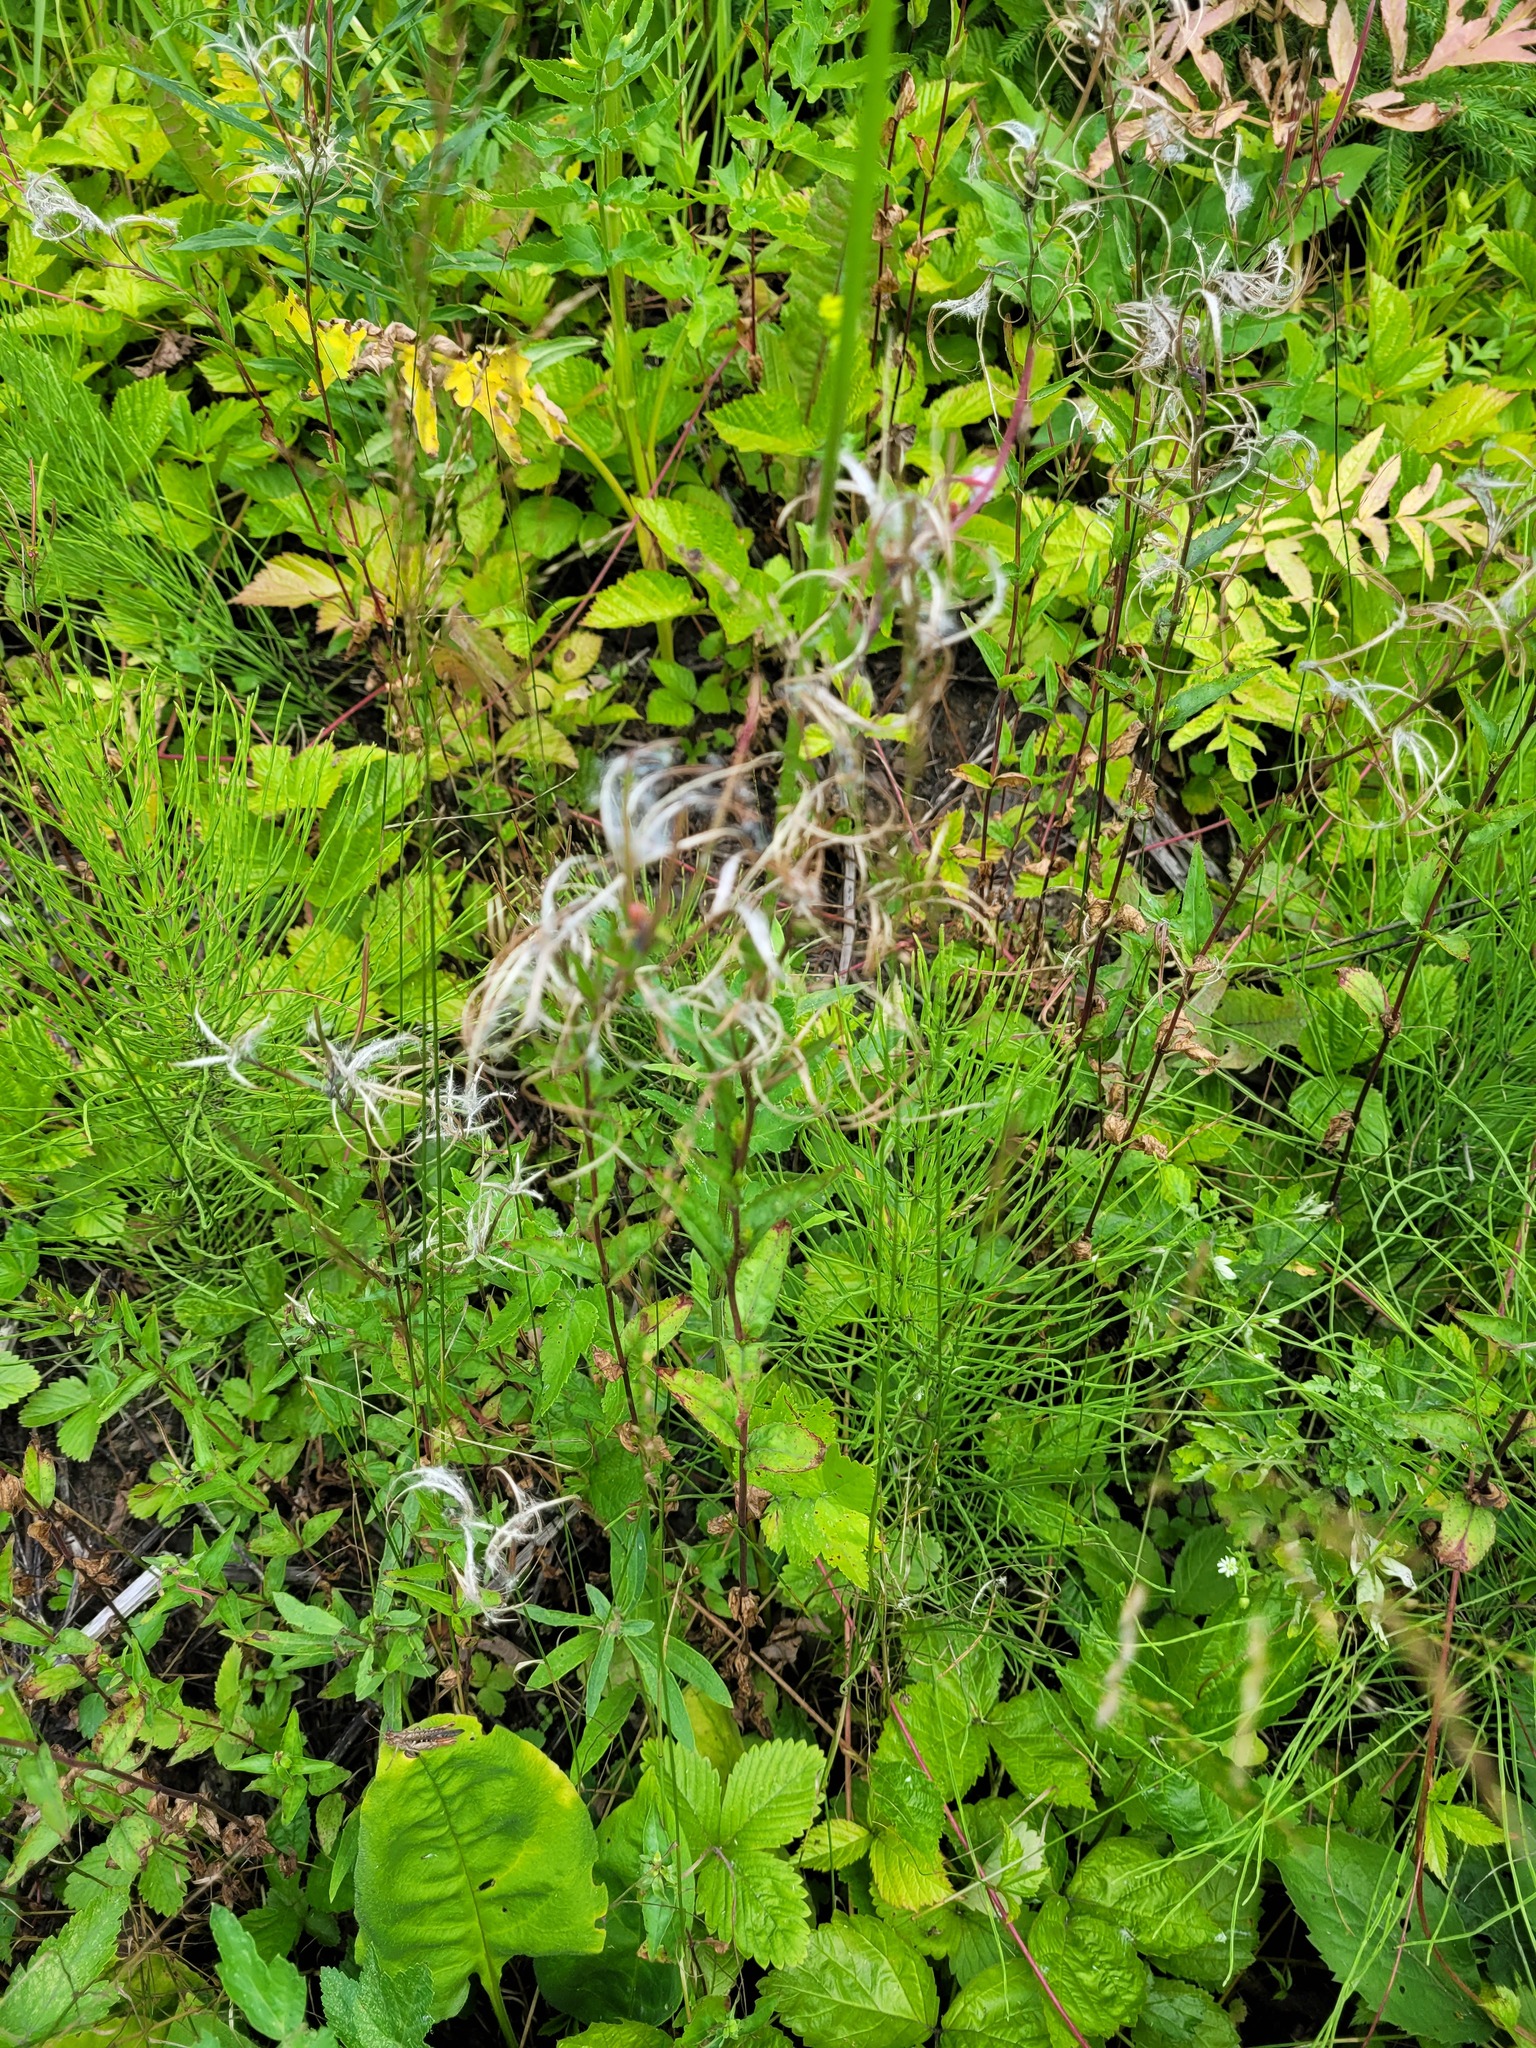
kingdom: Plantae
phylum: Tracheophyta
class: Magnoliopsida
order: Myrtales
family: Onagraceae
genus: Epilobium
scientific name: Epilobium montanum
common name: Broad-leaved willowherb
